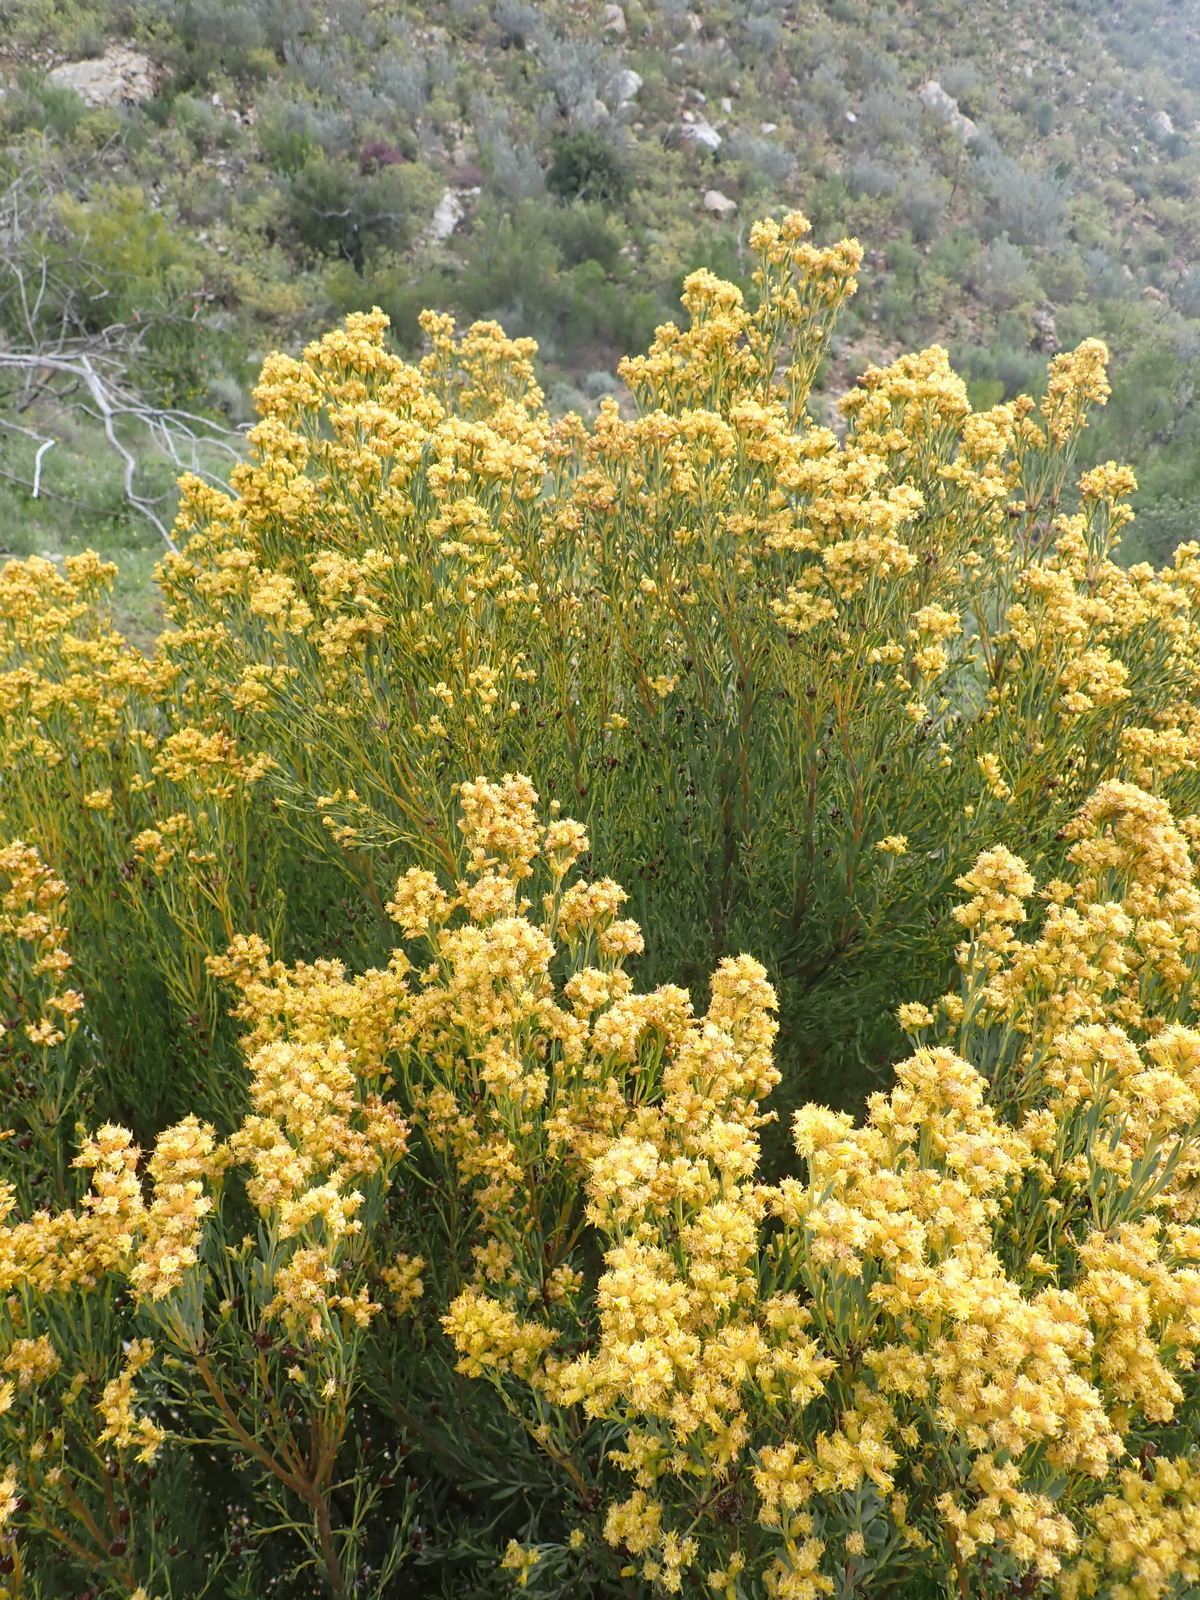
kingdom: Plantae
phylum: Tracheophyta
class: Magnoliopsida
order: Proteales
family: Proteaceae
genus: Leucadendron
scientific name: Leucadendron rubrum
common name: Spinning top
